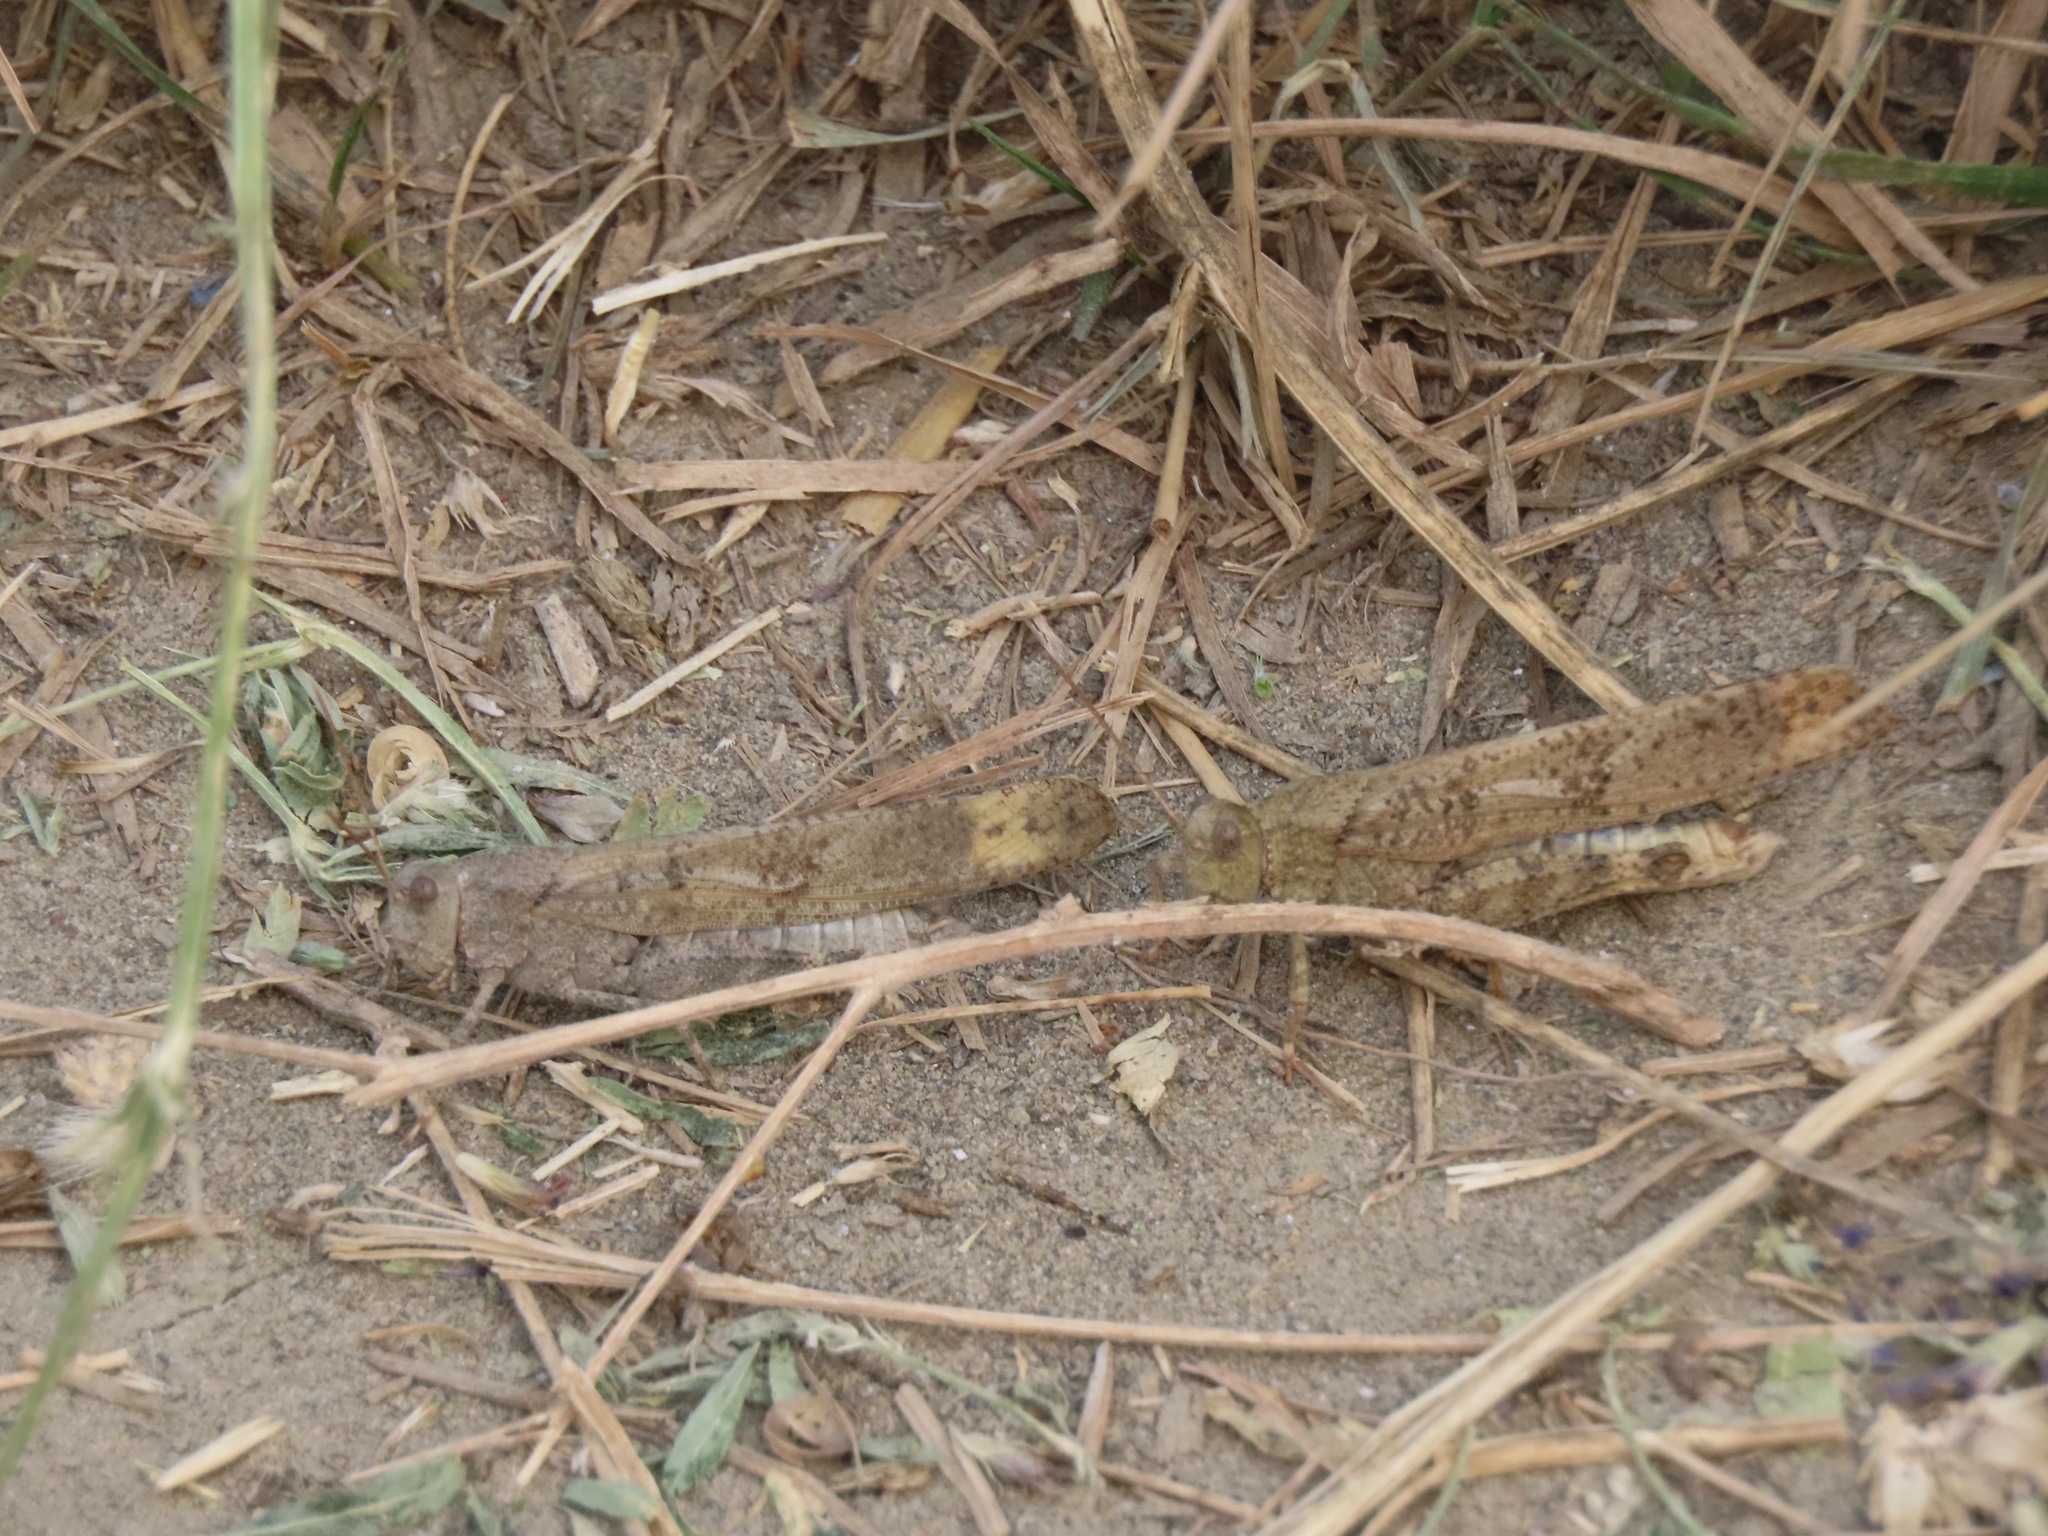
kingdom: Animalia
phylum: Arthropoda
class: Insecta
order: Orthoptera
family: Acrididae
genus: Dissosteira
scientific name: Dissosteira carolina
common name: Carolina grasshopper
